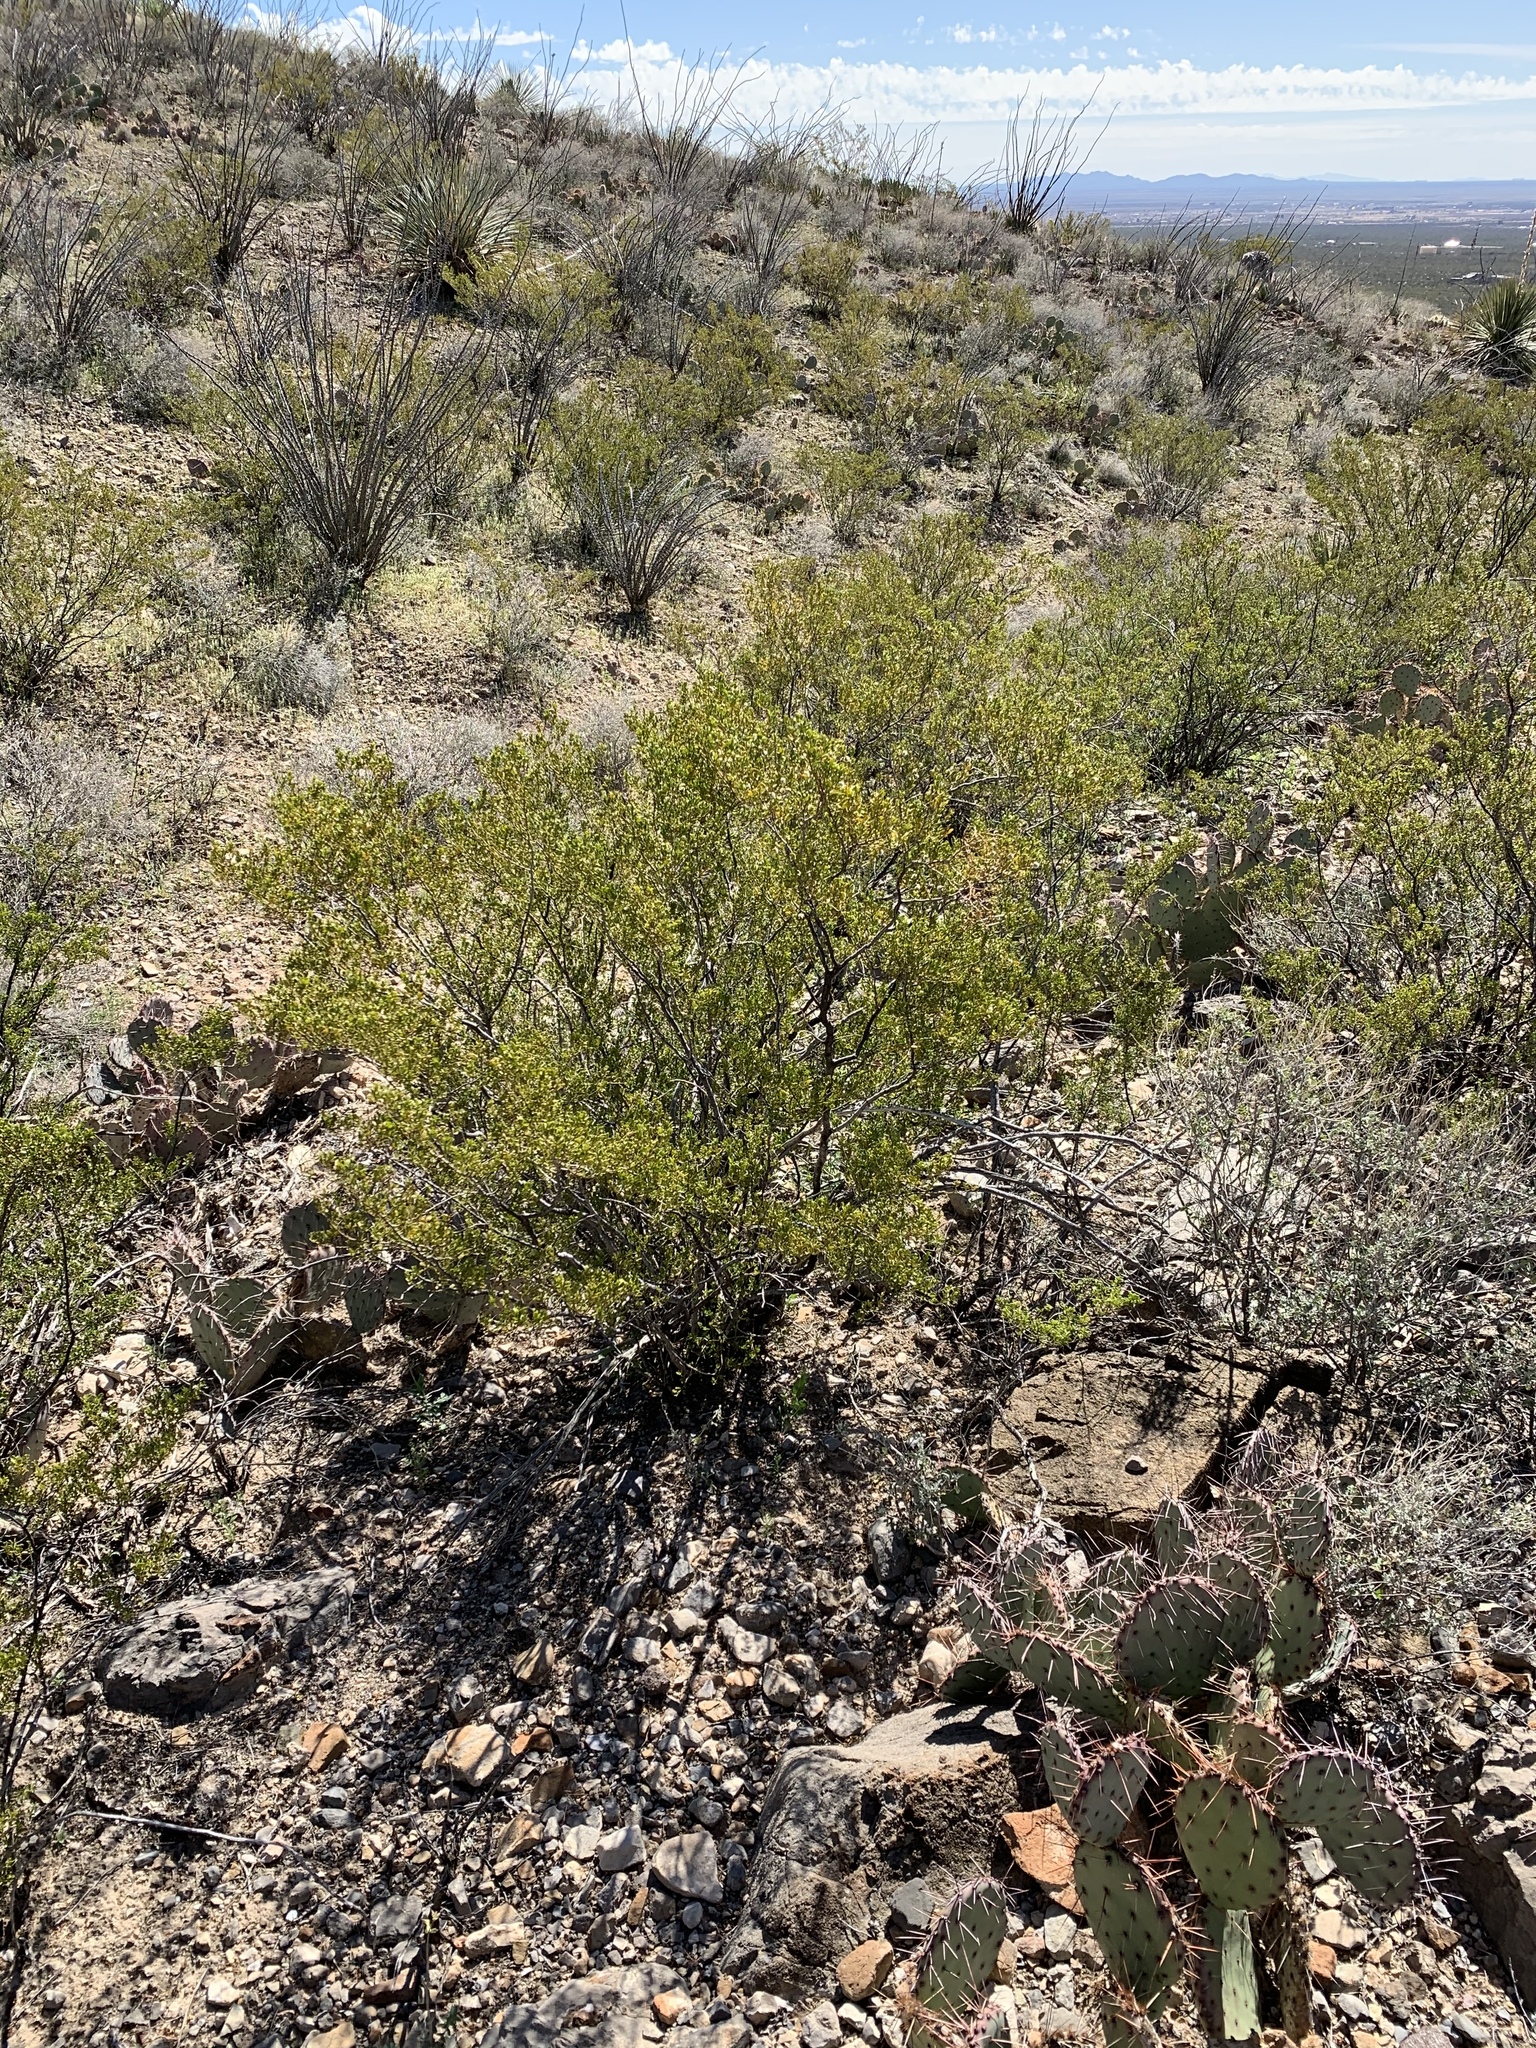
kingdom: Plantae
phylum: Tracheophyta
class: Magnoliopsida
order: Zygophyllales
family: Zygophyllaceae
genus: Larrea
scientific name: Larrea tridentata
